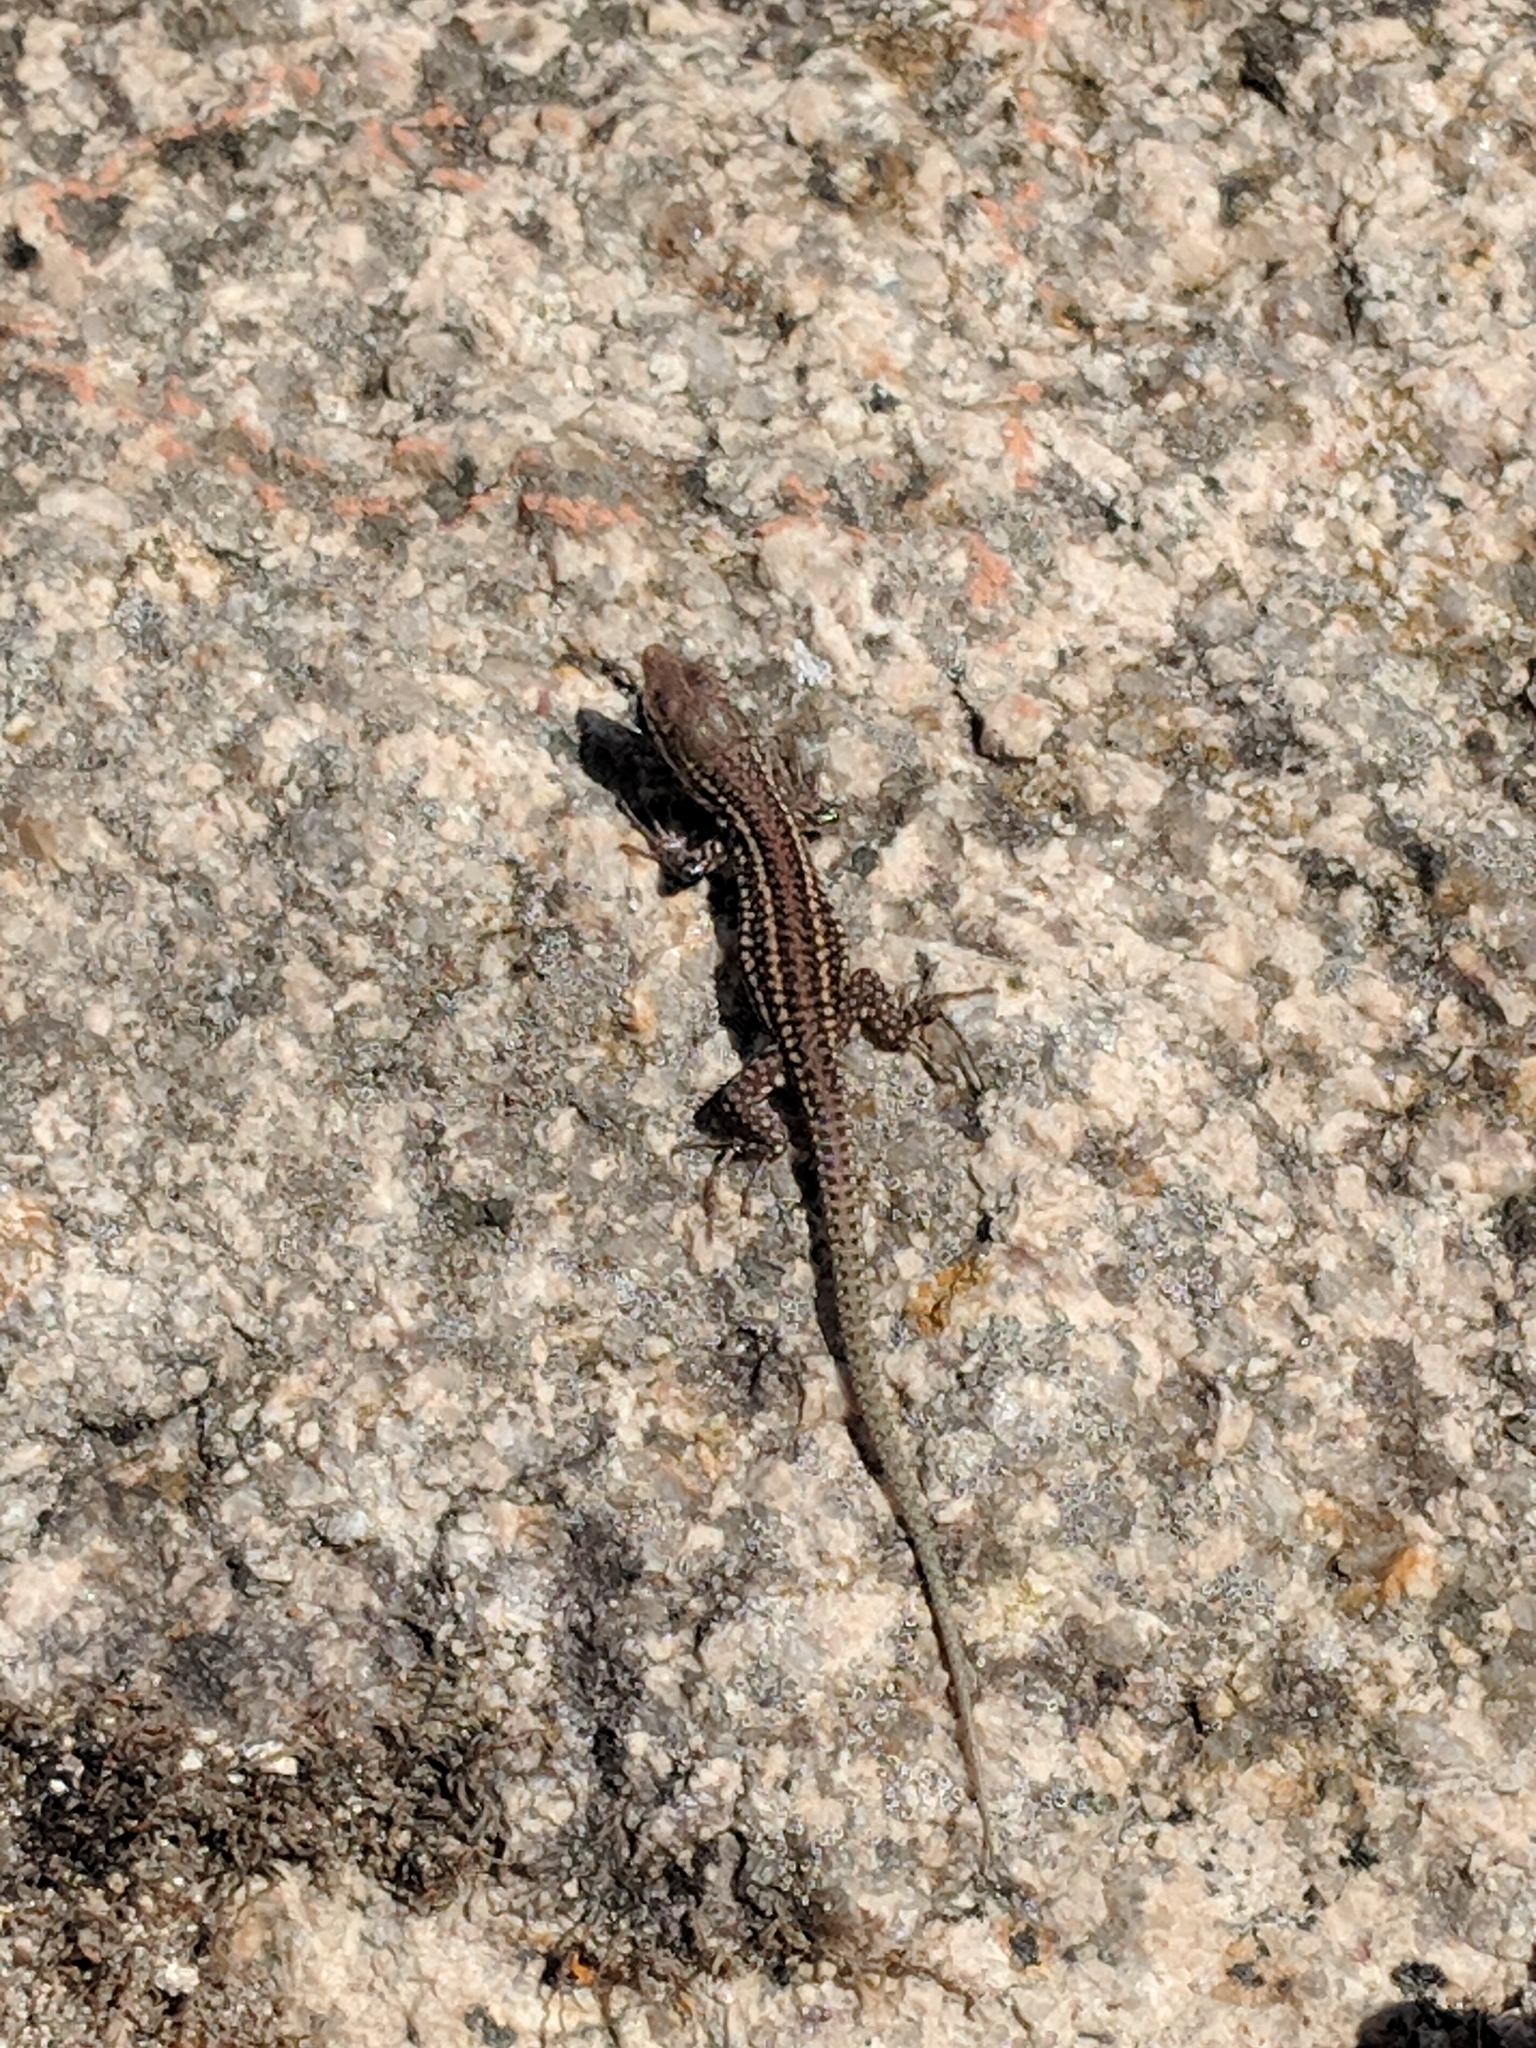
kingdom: Animalia
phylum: Chordata
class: Squamata
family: Lacertidae
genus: Podarcis
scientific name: Podarcis virescens
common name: Geniez’s wall lizard
